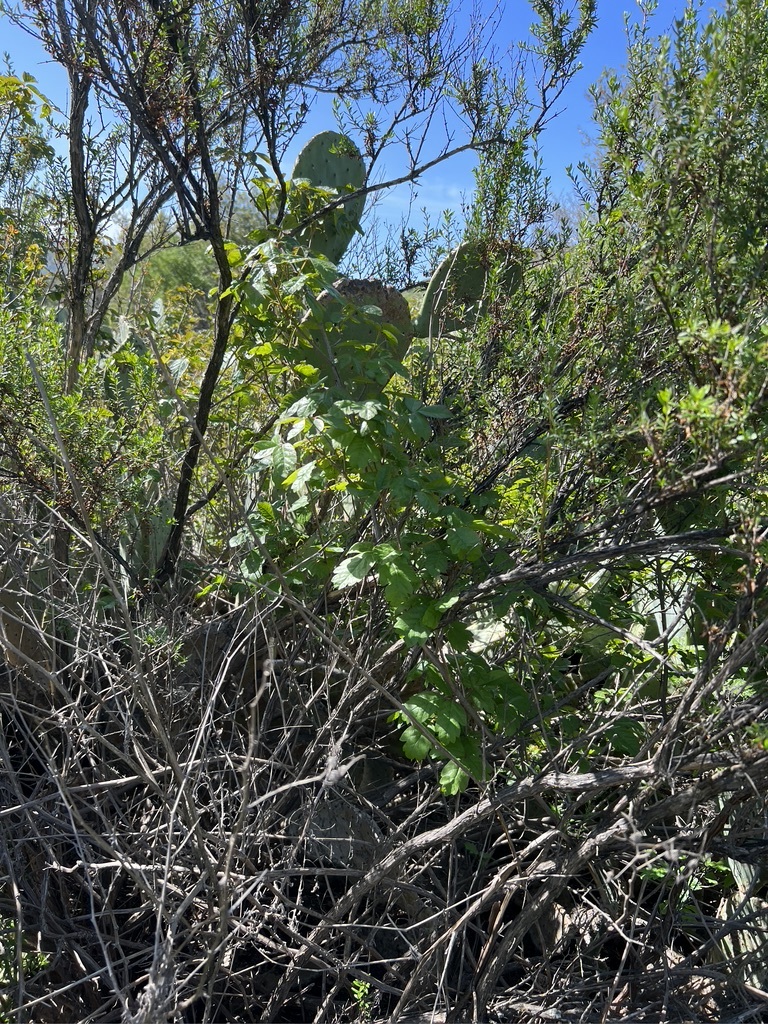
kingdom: Plantae
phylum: Tracheophyta
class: Magnoliopsida
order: Sapindales
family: Anacardiaceae
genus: Toxicodendron
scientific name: Toxicodendron diversilobum
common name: Pacific poison-oak
